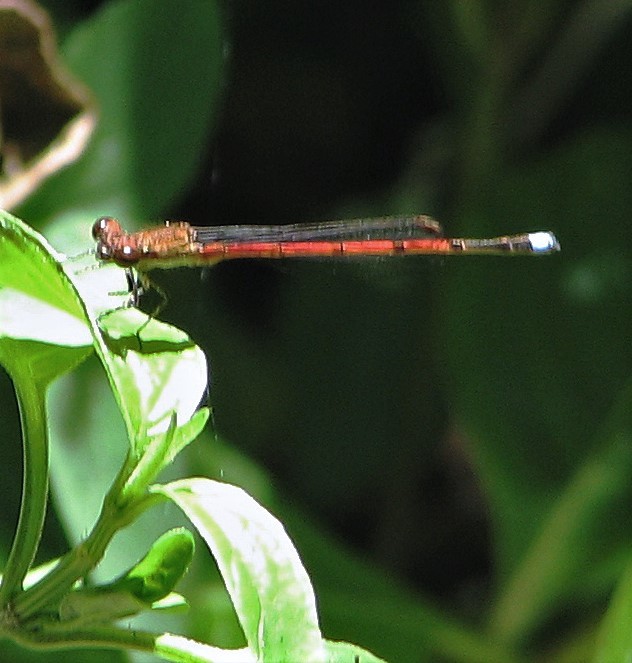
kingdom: Animalia
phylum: Arthropoda
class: Insecta
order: Odonata
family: Coenagrionidae
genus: Oxyagrion
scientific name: Oxyagrion terminale
